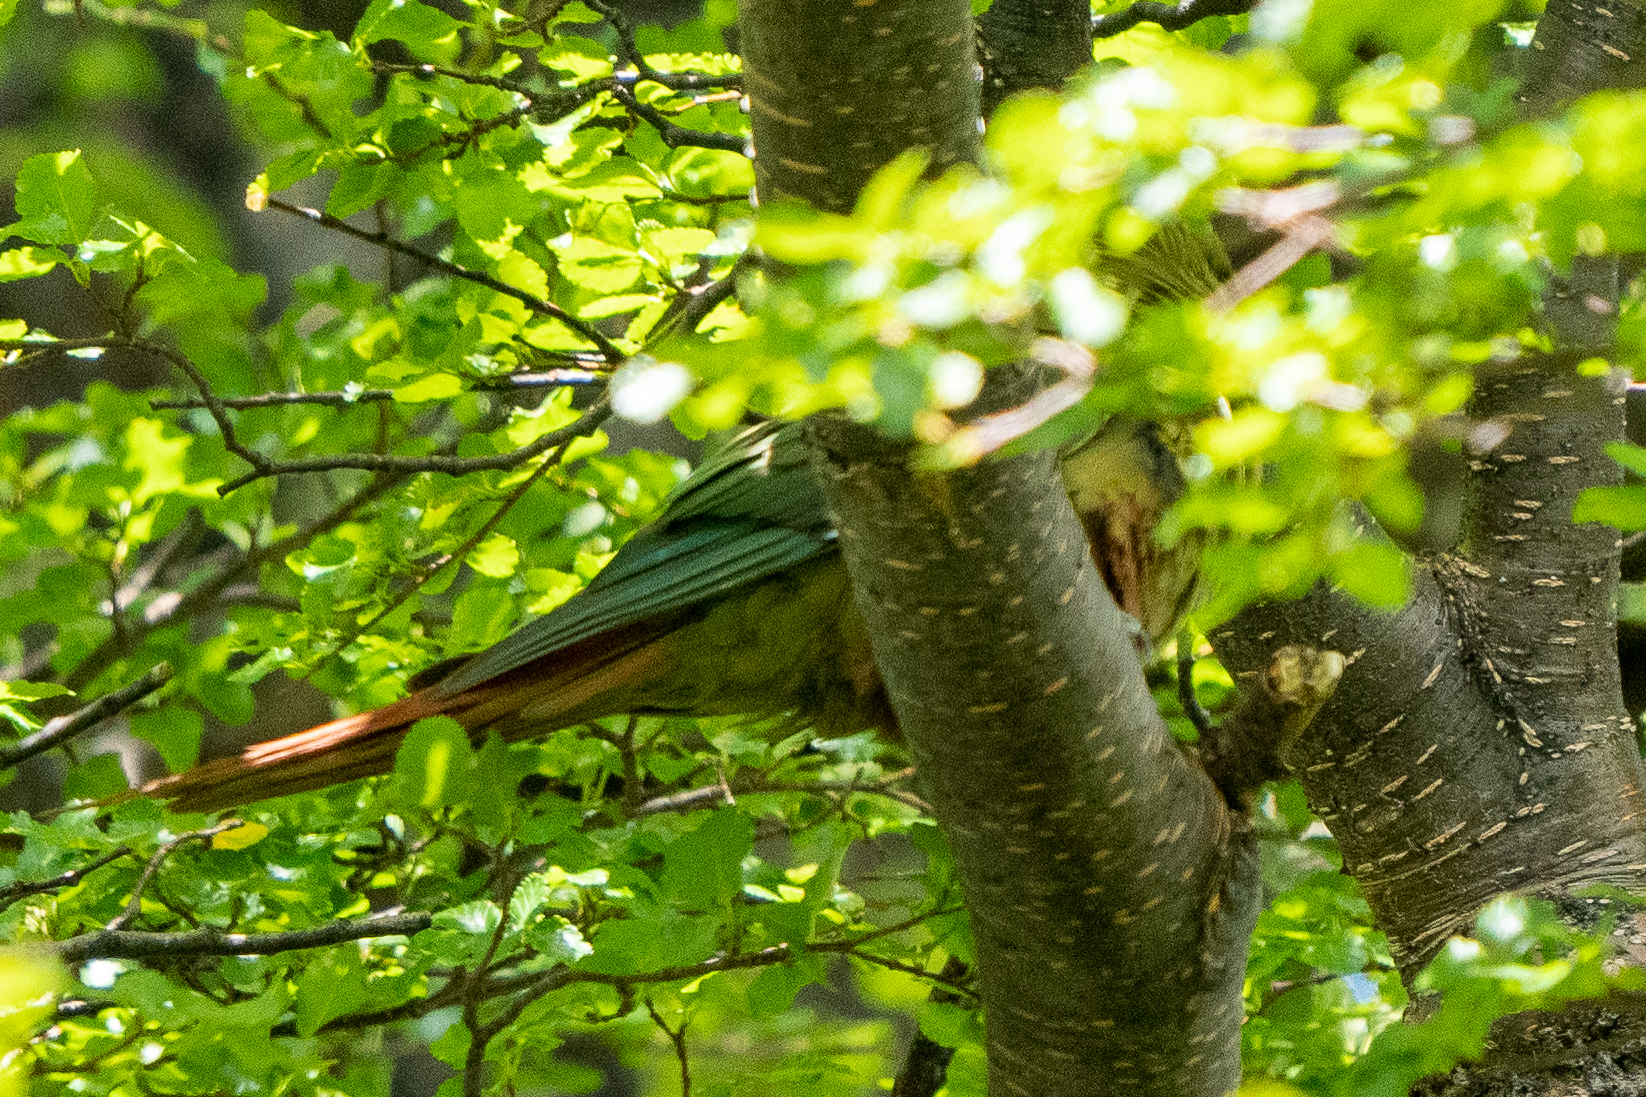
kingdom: Animalia
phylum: Chordata
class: Aves
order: Psittaciformes
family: Psittacidae
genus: Enicognathus
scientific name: Enicognathus ferrugineus
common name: Austral parakeet
